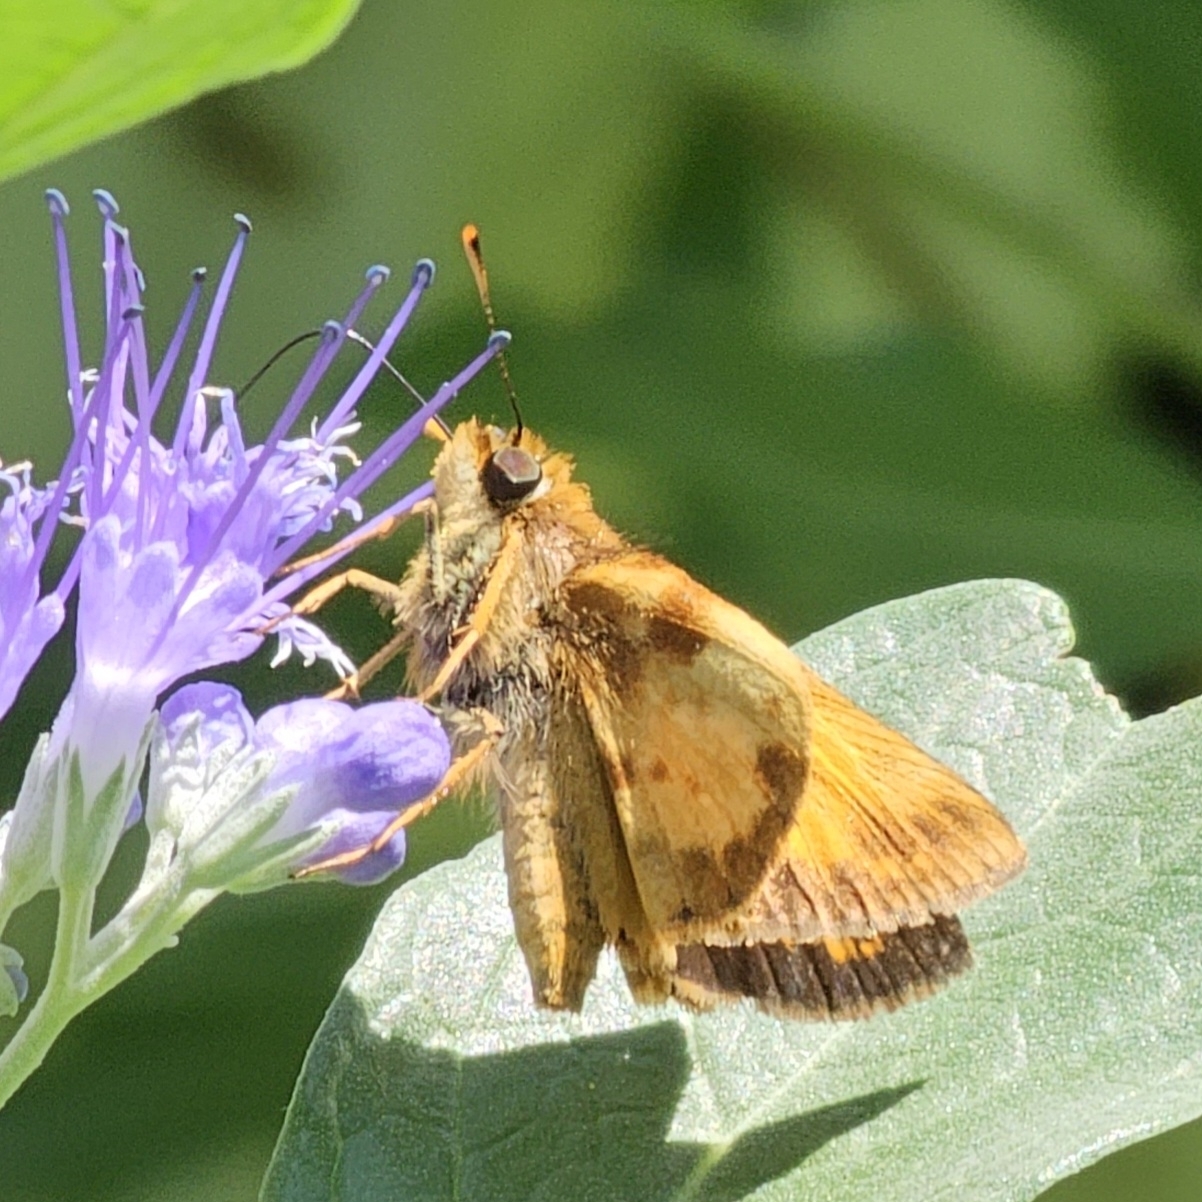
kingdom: Animalia
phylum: Arthropoda
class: Insecta
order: Lepidoptera
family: Hesperiidae
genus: Lon
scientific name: Lon zabulon
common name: Zabulon skipper
